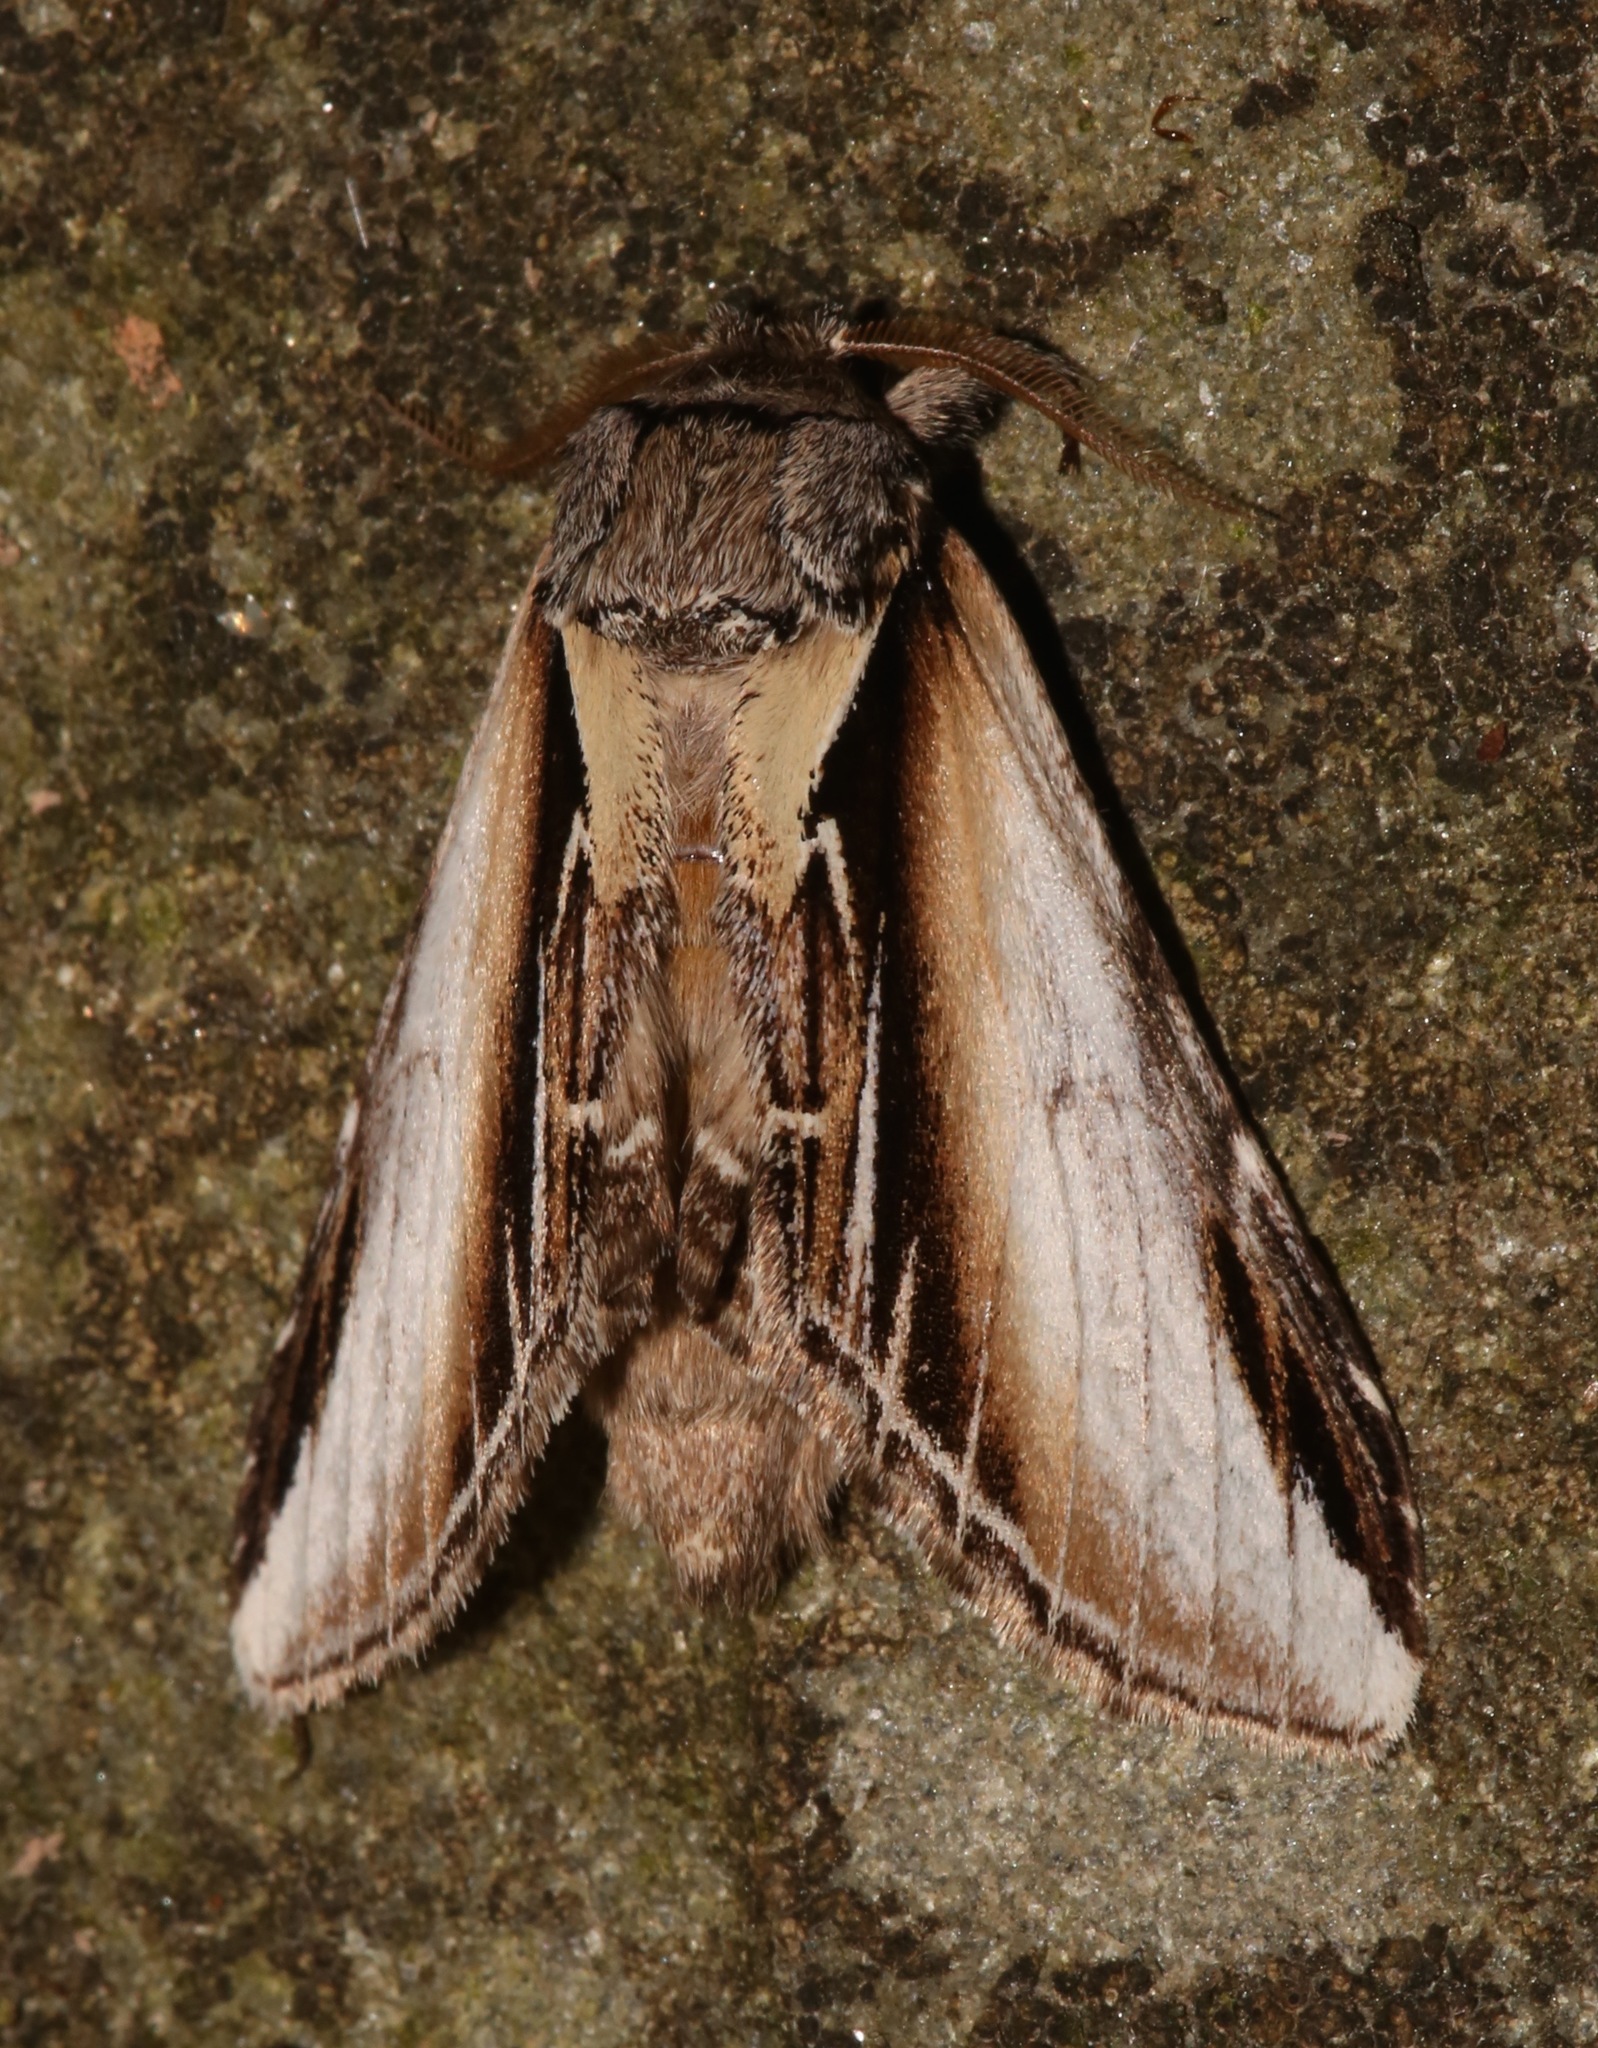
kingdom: Animalia
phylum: Arthropoda
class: Insecta
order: Lepidoptera
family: Notodontidae
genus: Pheosia
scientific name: Pheosia rimosa
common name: Black-rimmed prominent
